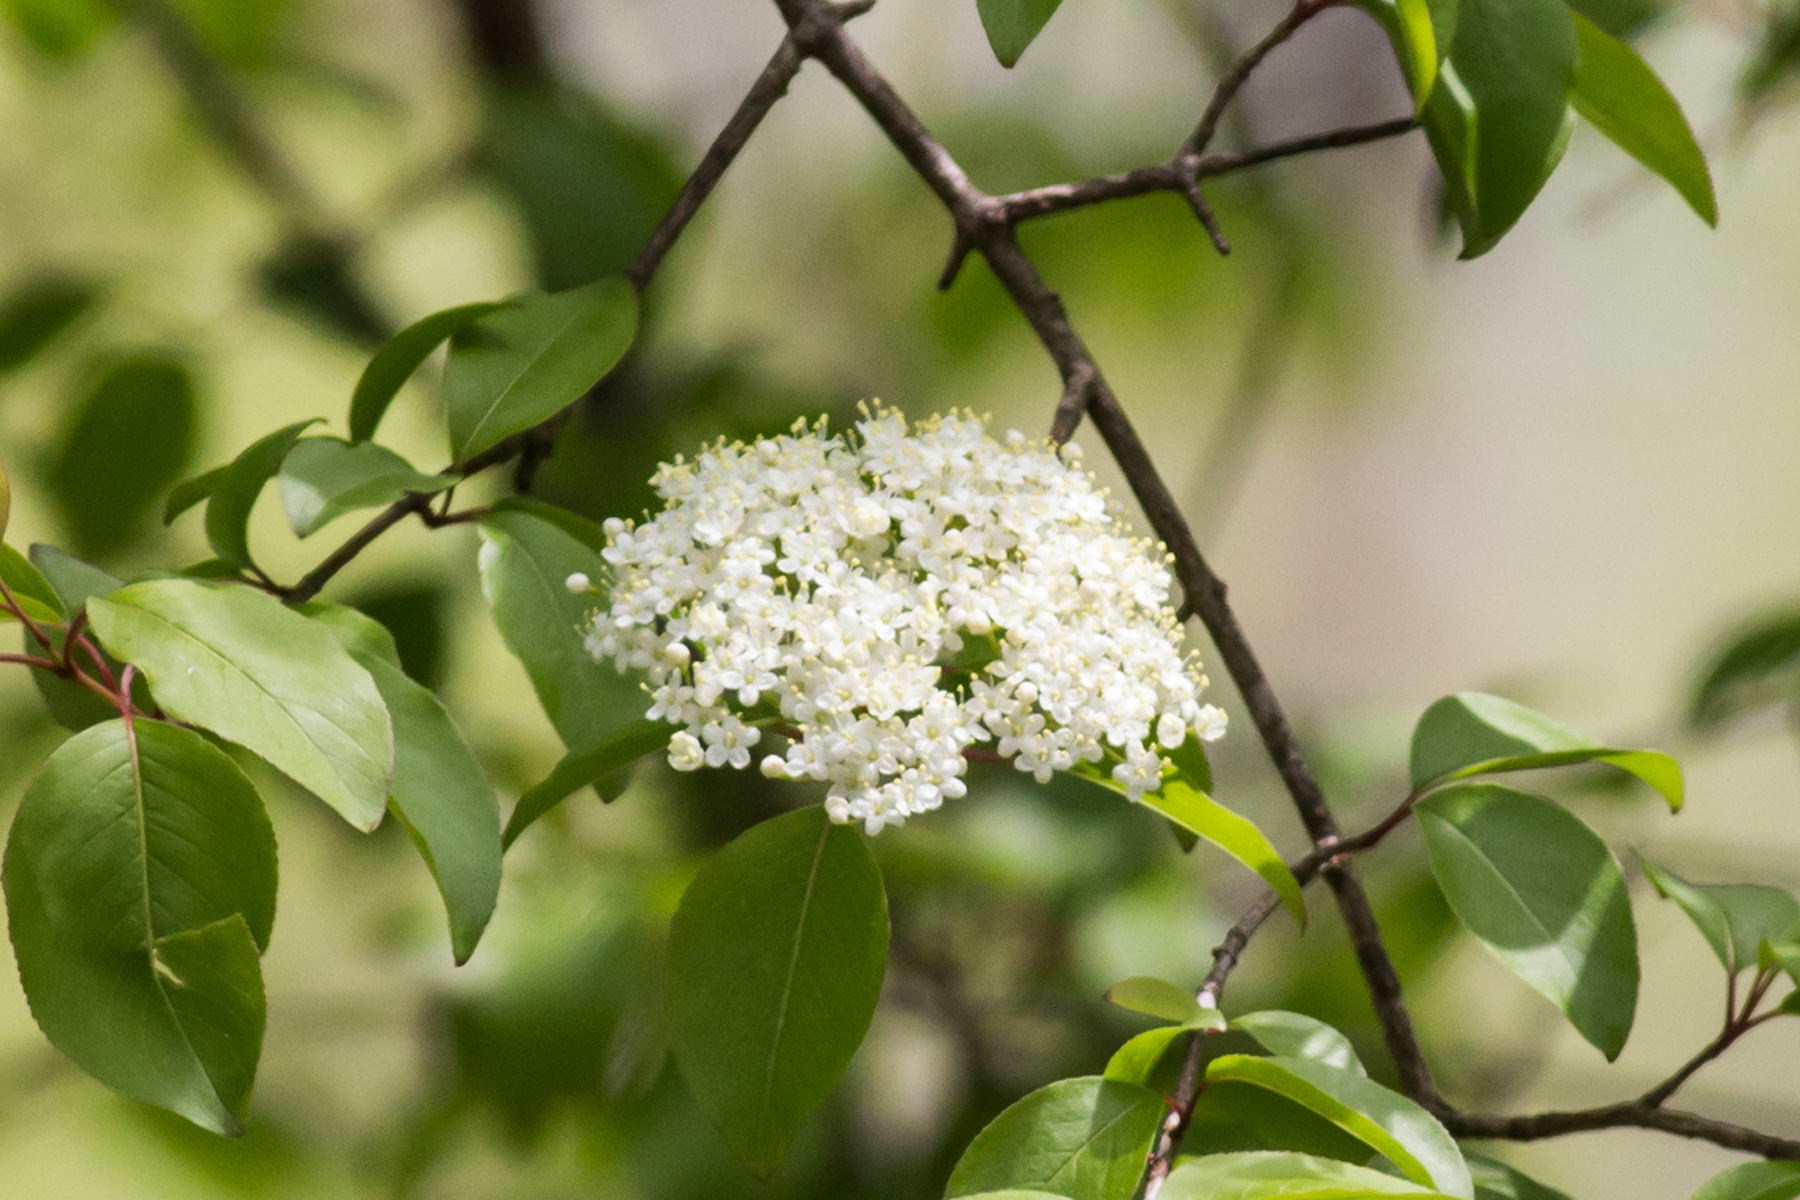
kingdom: Plantae
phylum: Tracheophyta
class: Magnoliopsida
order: Dipsacales
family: Viburnaceae
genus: Viburnum
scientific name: Viburnum prunifolium
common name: Black haw
